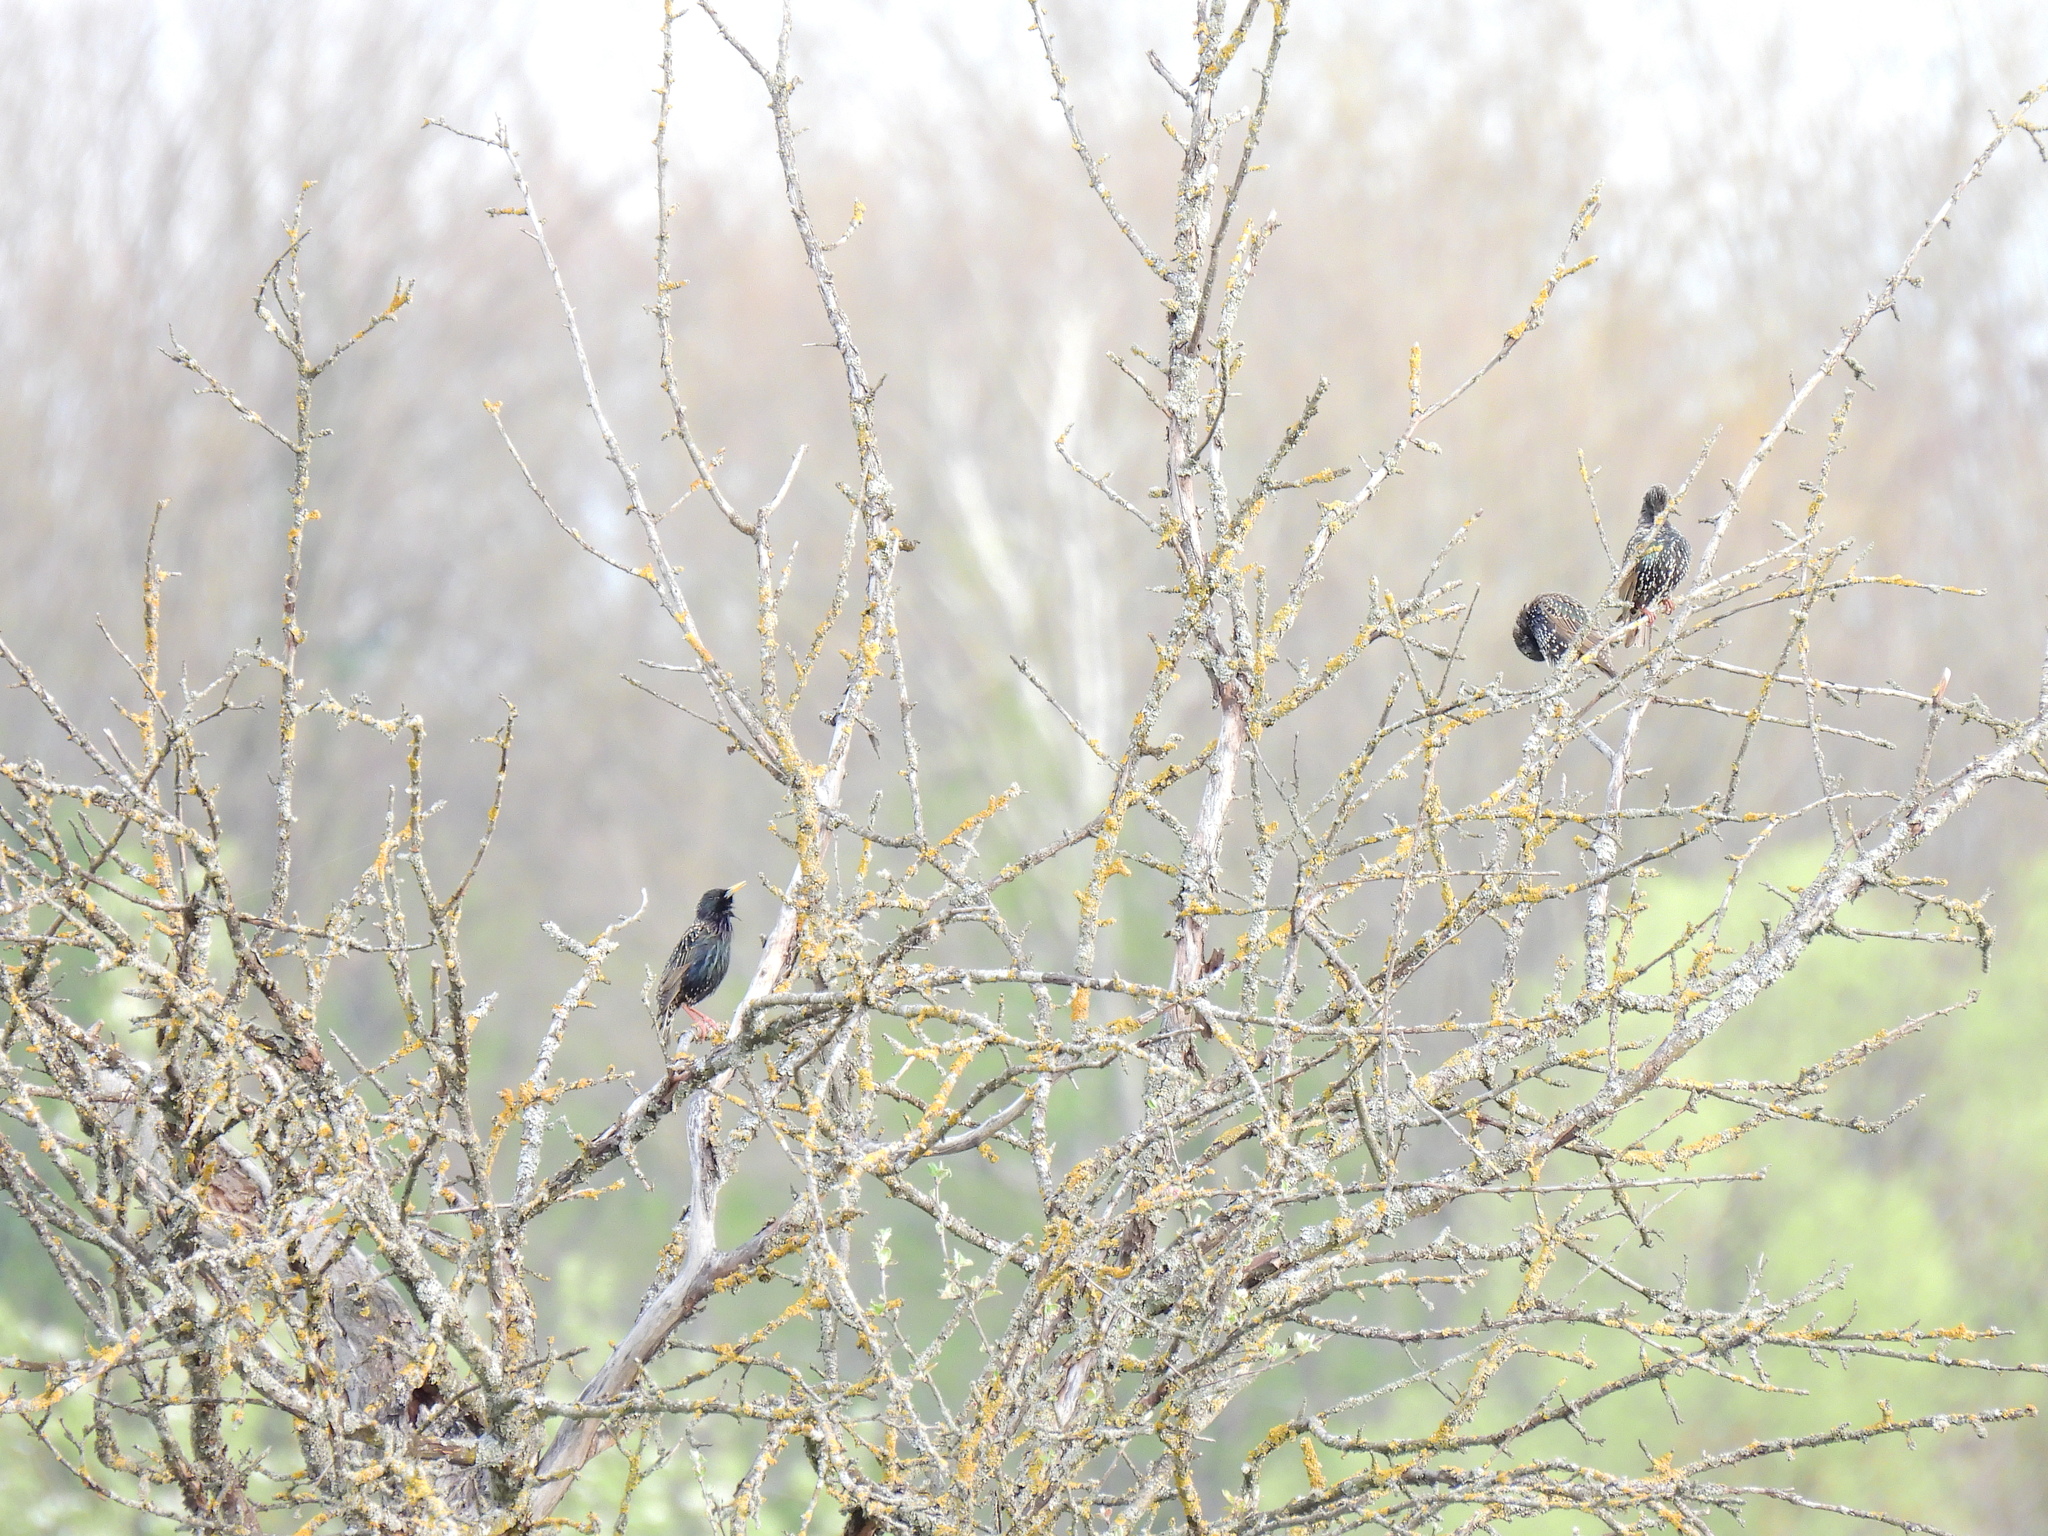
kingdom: Animalia
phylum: Chordata
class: Aves
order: Passeriformes
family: Sturnidae
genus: Sturnus
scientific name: Sturnus vulgaris
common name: Common starling
